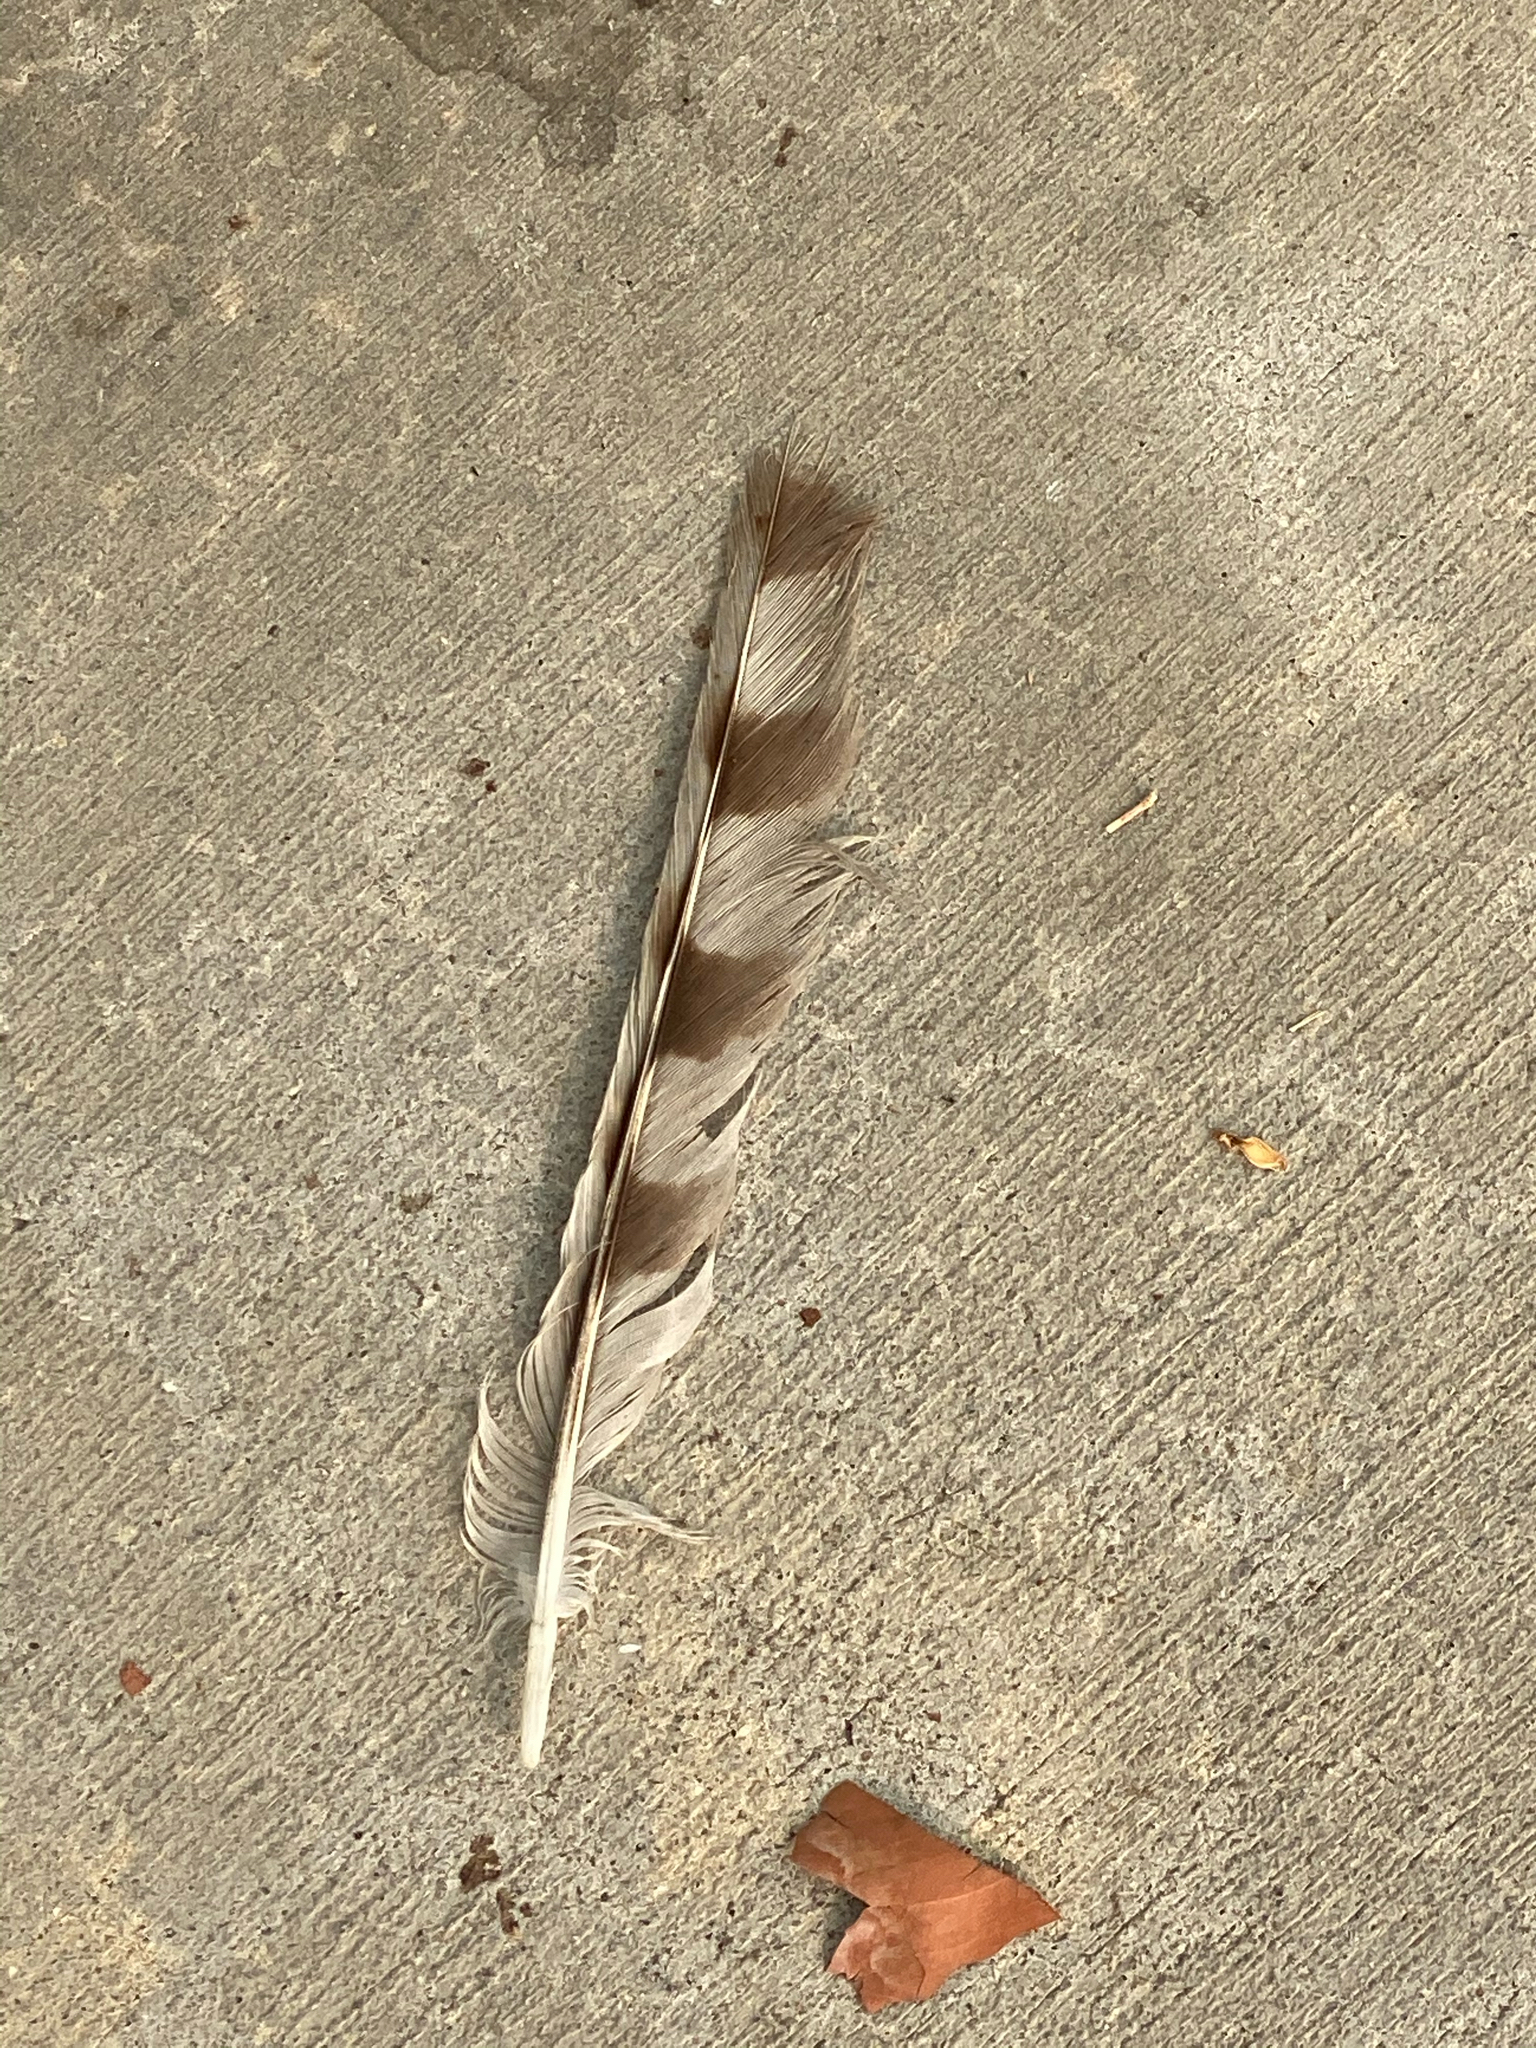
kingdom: Animalia
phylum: Chordata
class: Aves
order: Accipitriformes
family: Accipitridae
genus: Accipiter
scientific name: Accipiter cooperii
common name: Cooper's hawk
